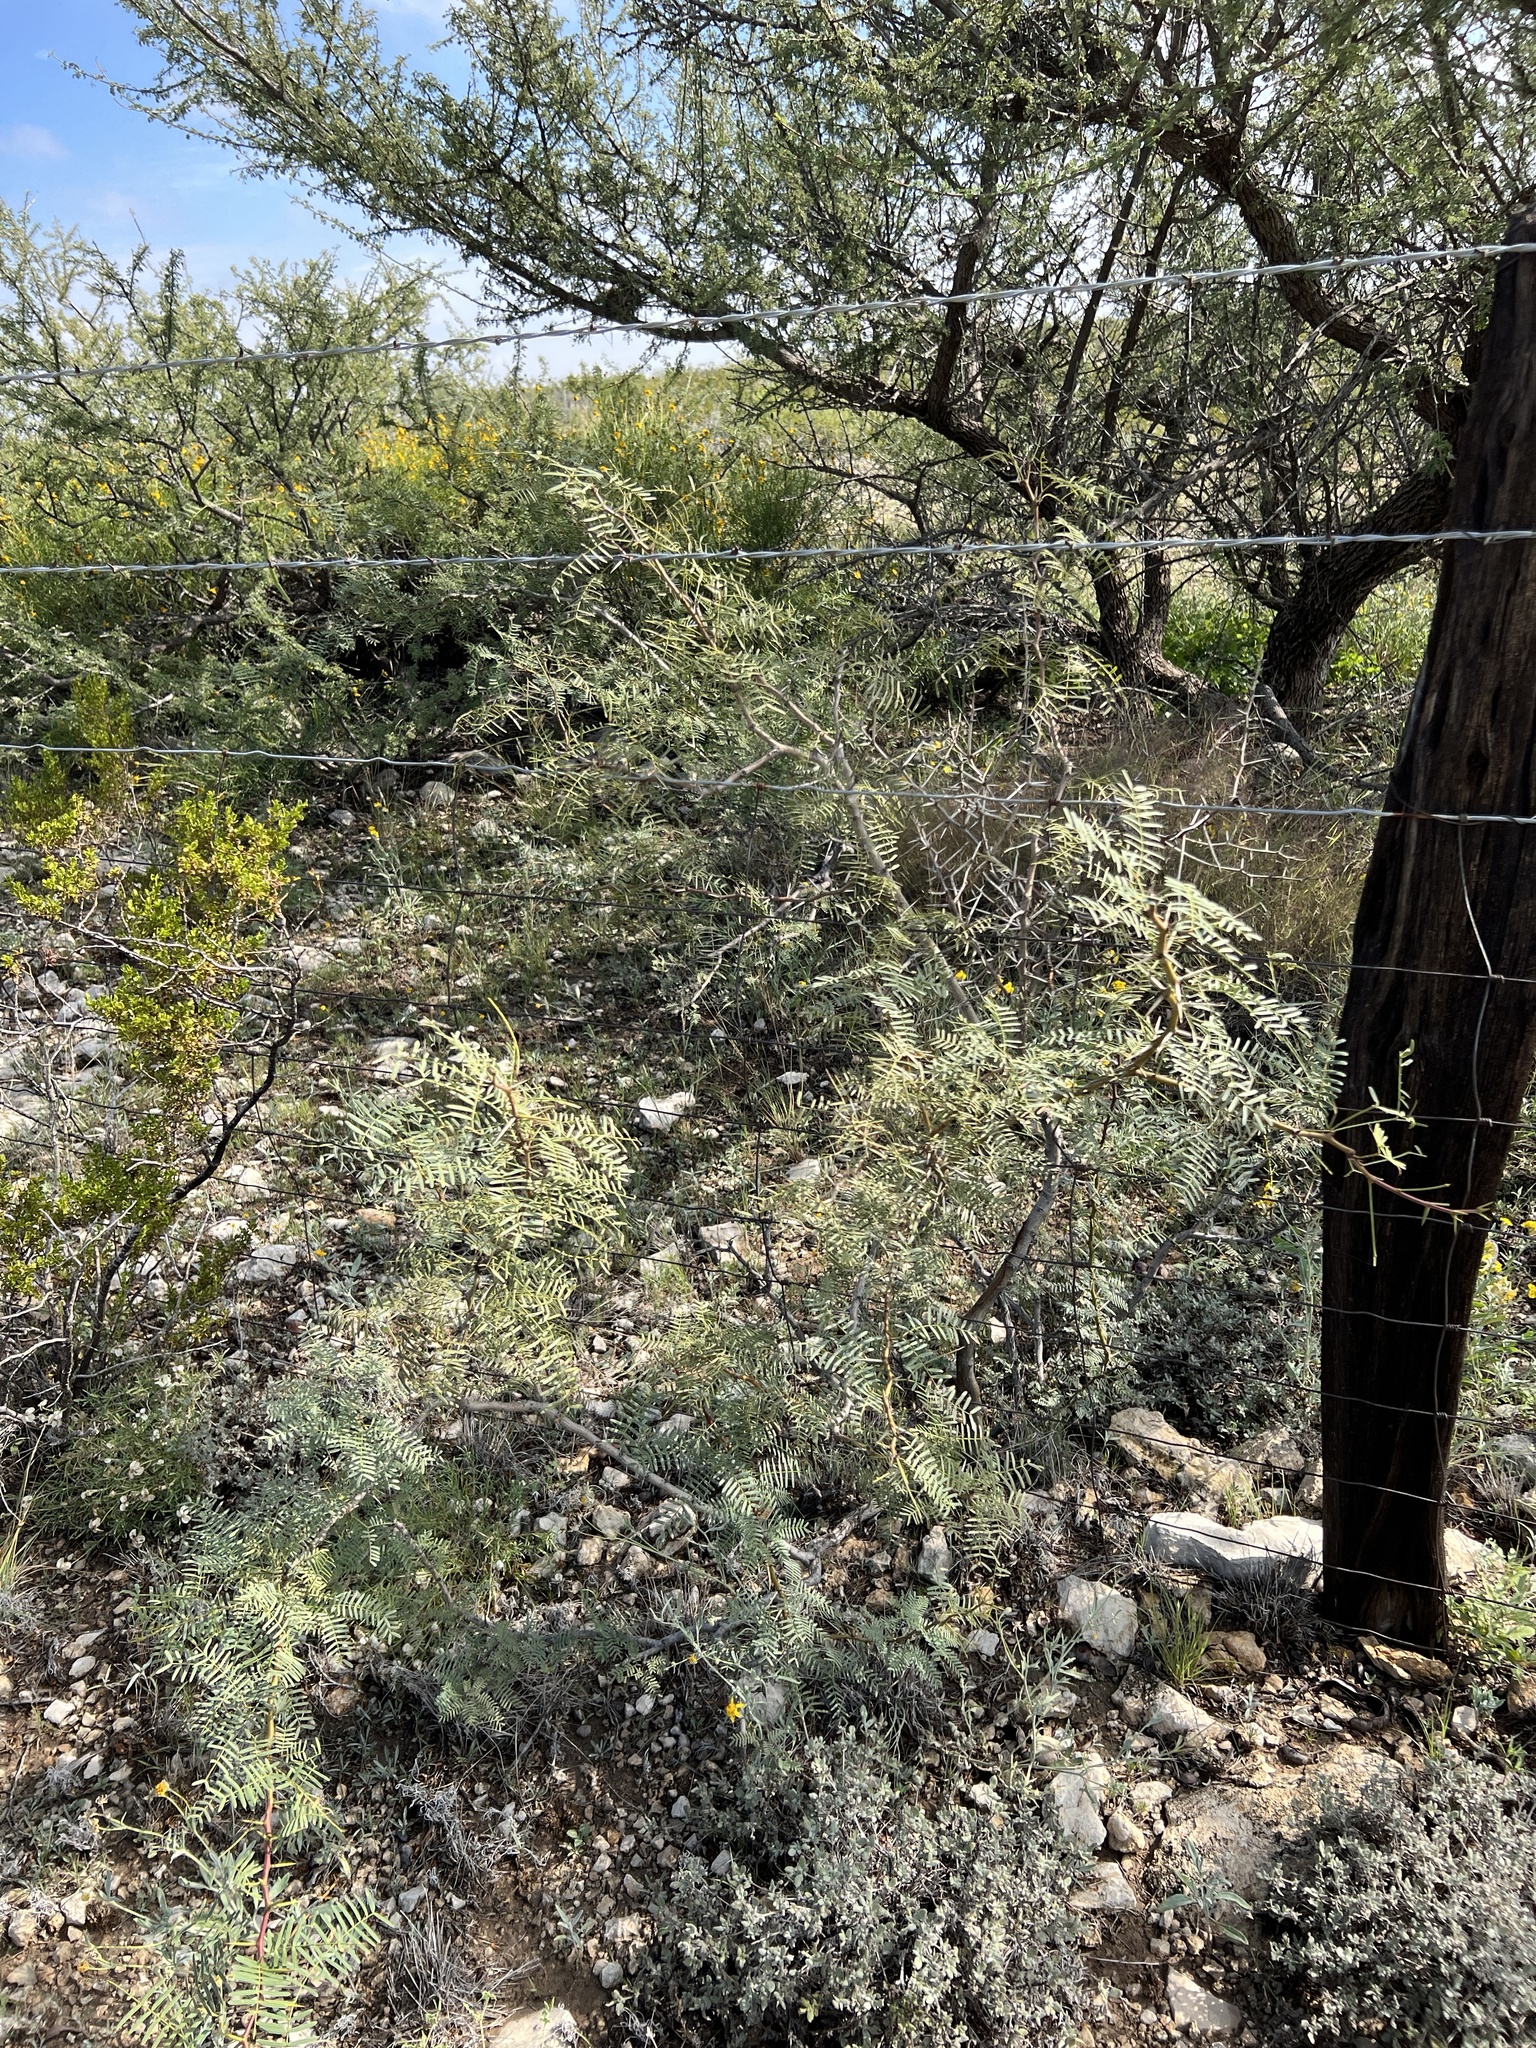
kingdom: Plantae
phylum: Tracheophyta
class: Magnoliopsida
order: Fabales
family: Fabaceae
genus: Prosopis
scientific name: Prosopis glandulosa
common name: Honey mesquite
